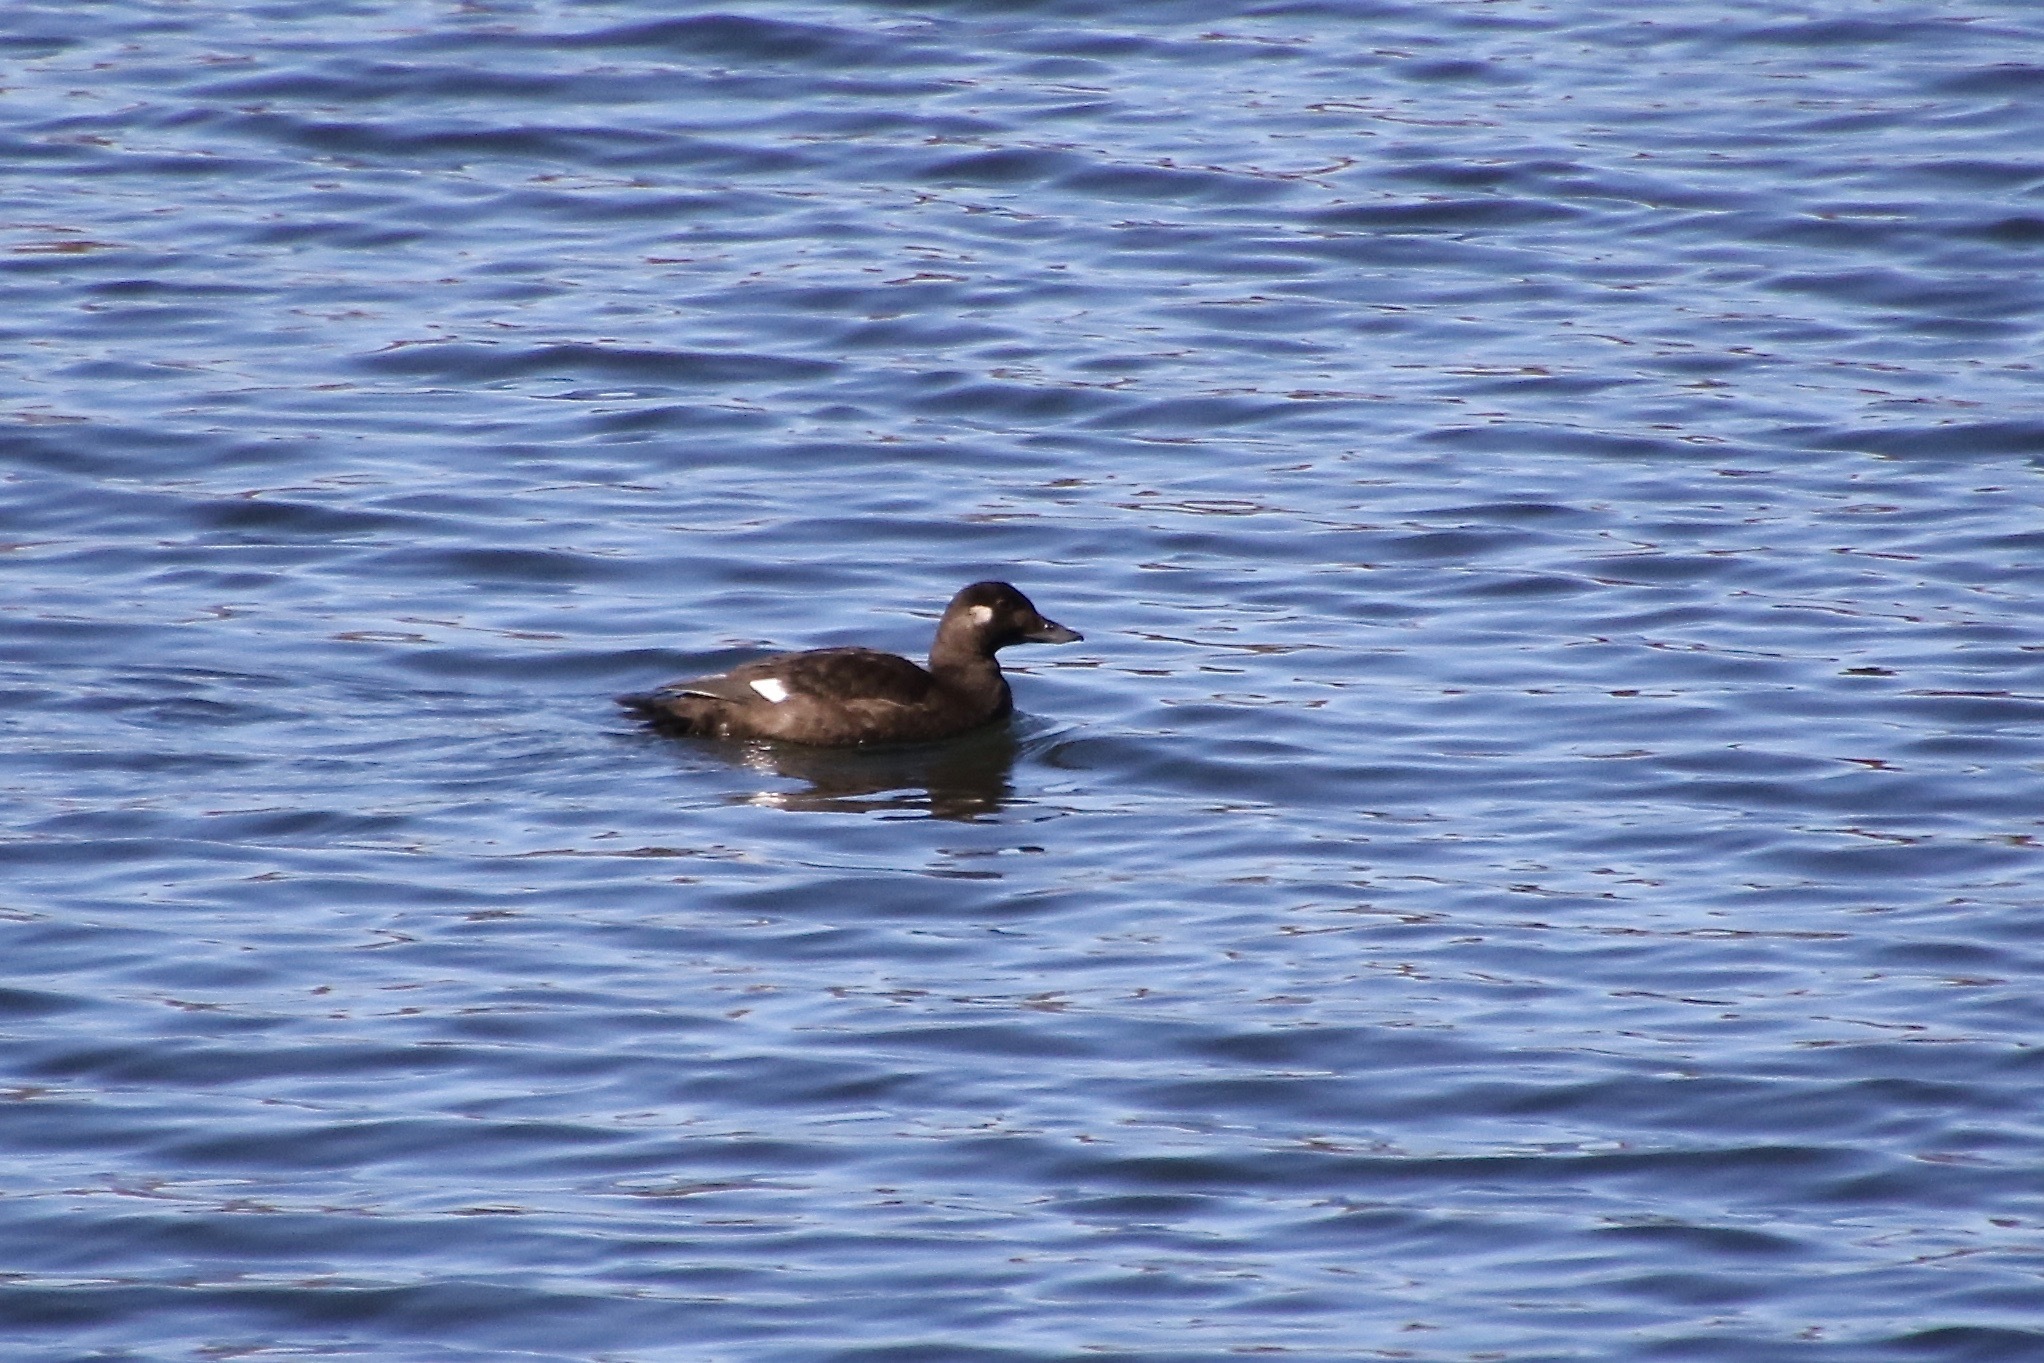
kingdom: Animalia
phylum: Chordata
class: Aves
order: Anseriformes
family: Anatidae
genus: Melanitta
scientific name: Melanitta deglandi
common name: White-winged scoter
